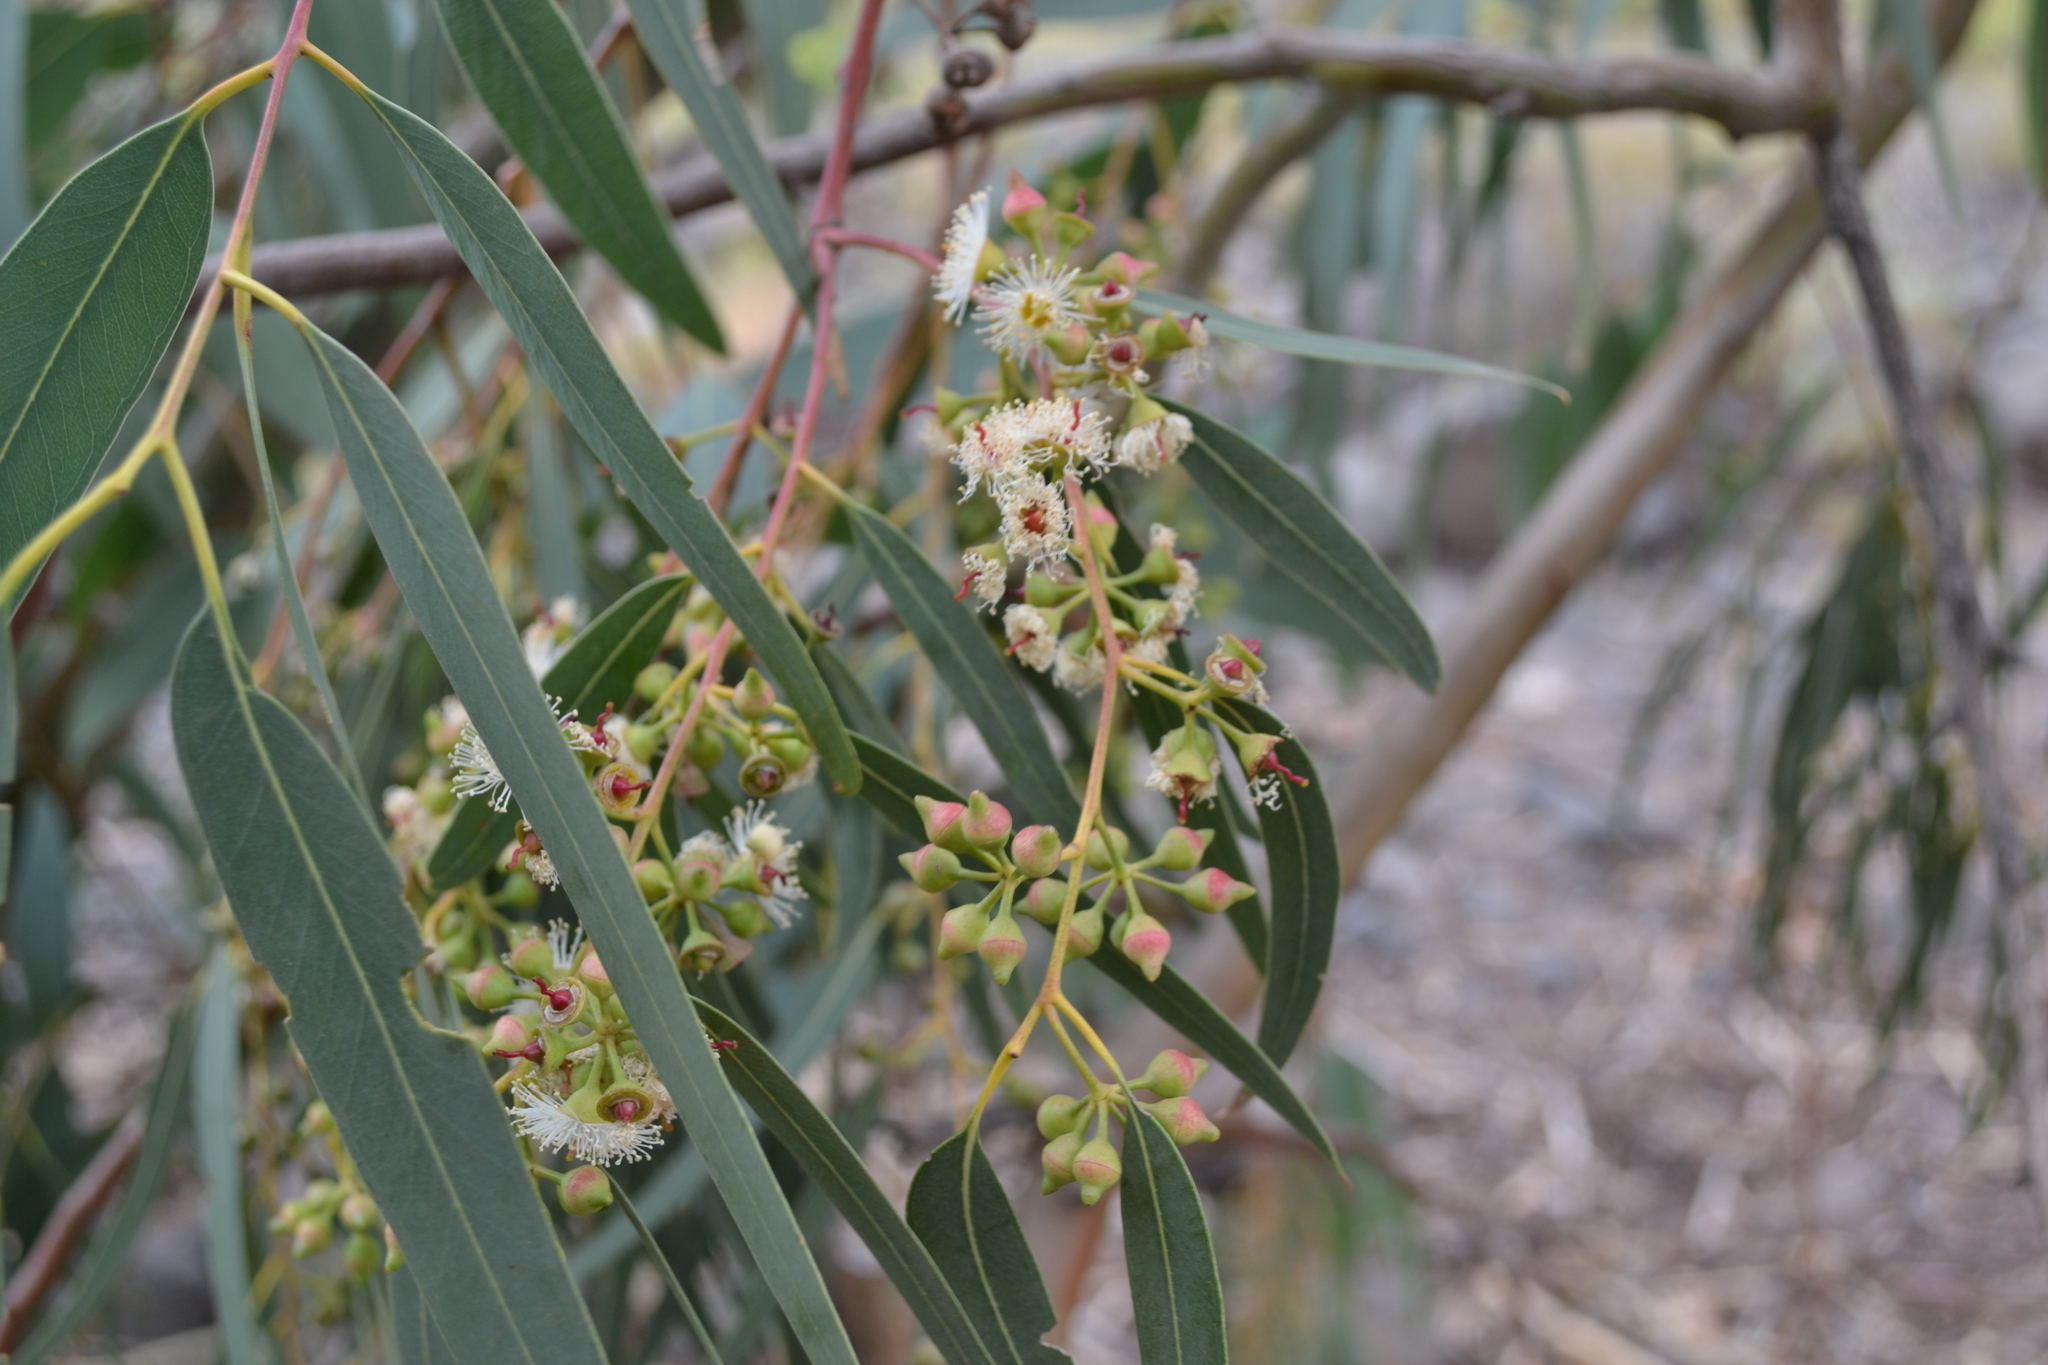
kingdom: Plantae
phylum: Tracheophyta
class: Magnoliopsida
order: Myrtales
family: Myrtaceae
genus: Eucalyptus
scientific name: Eucalyptus camaldulensis
